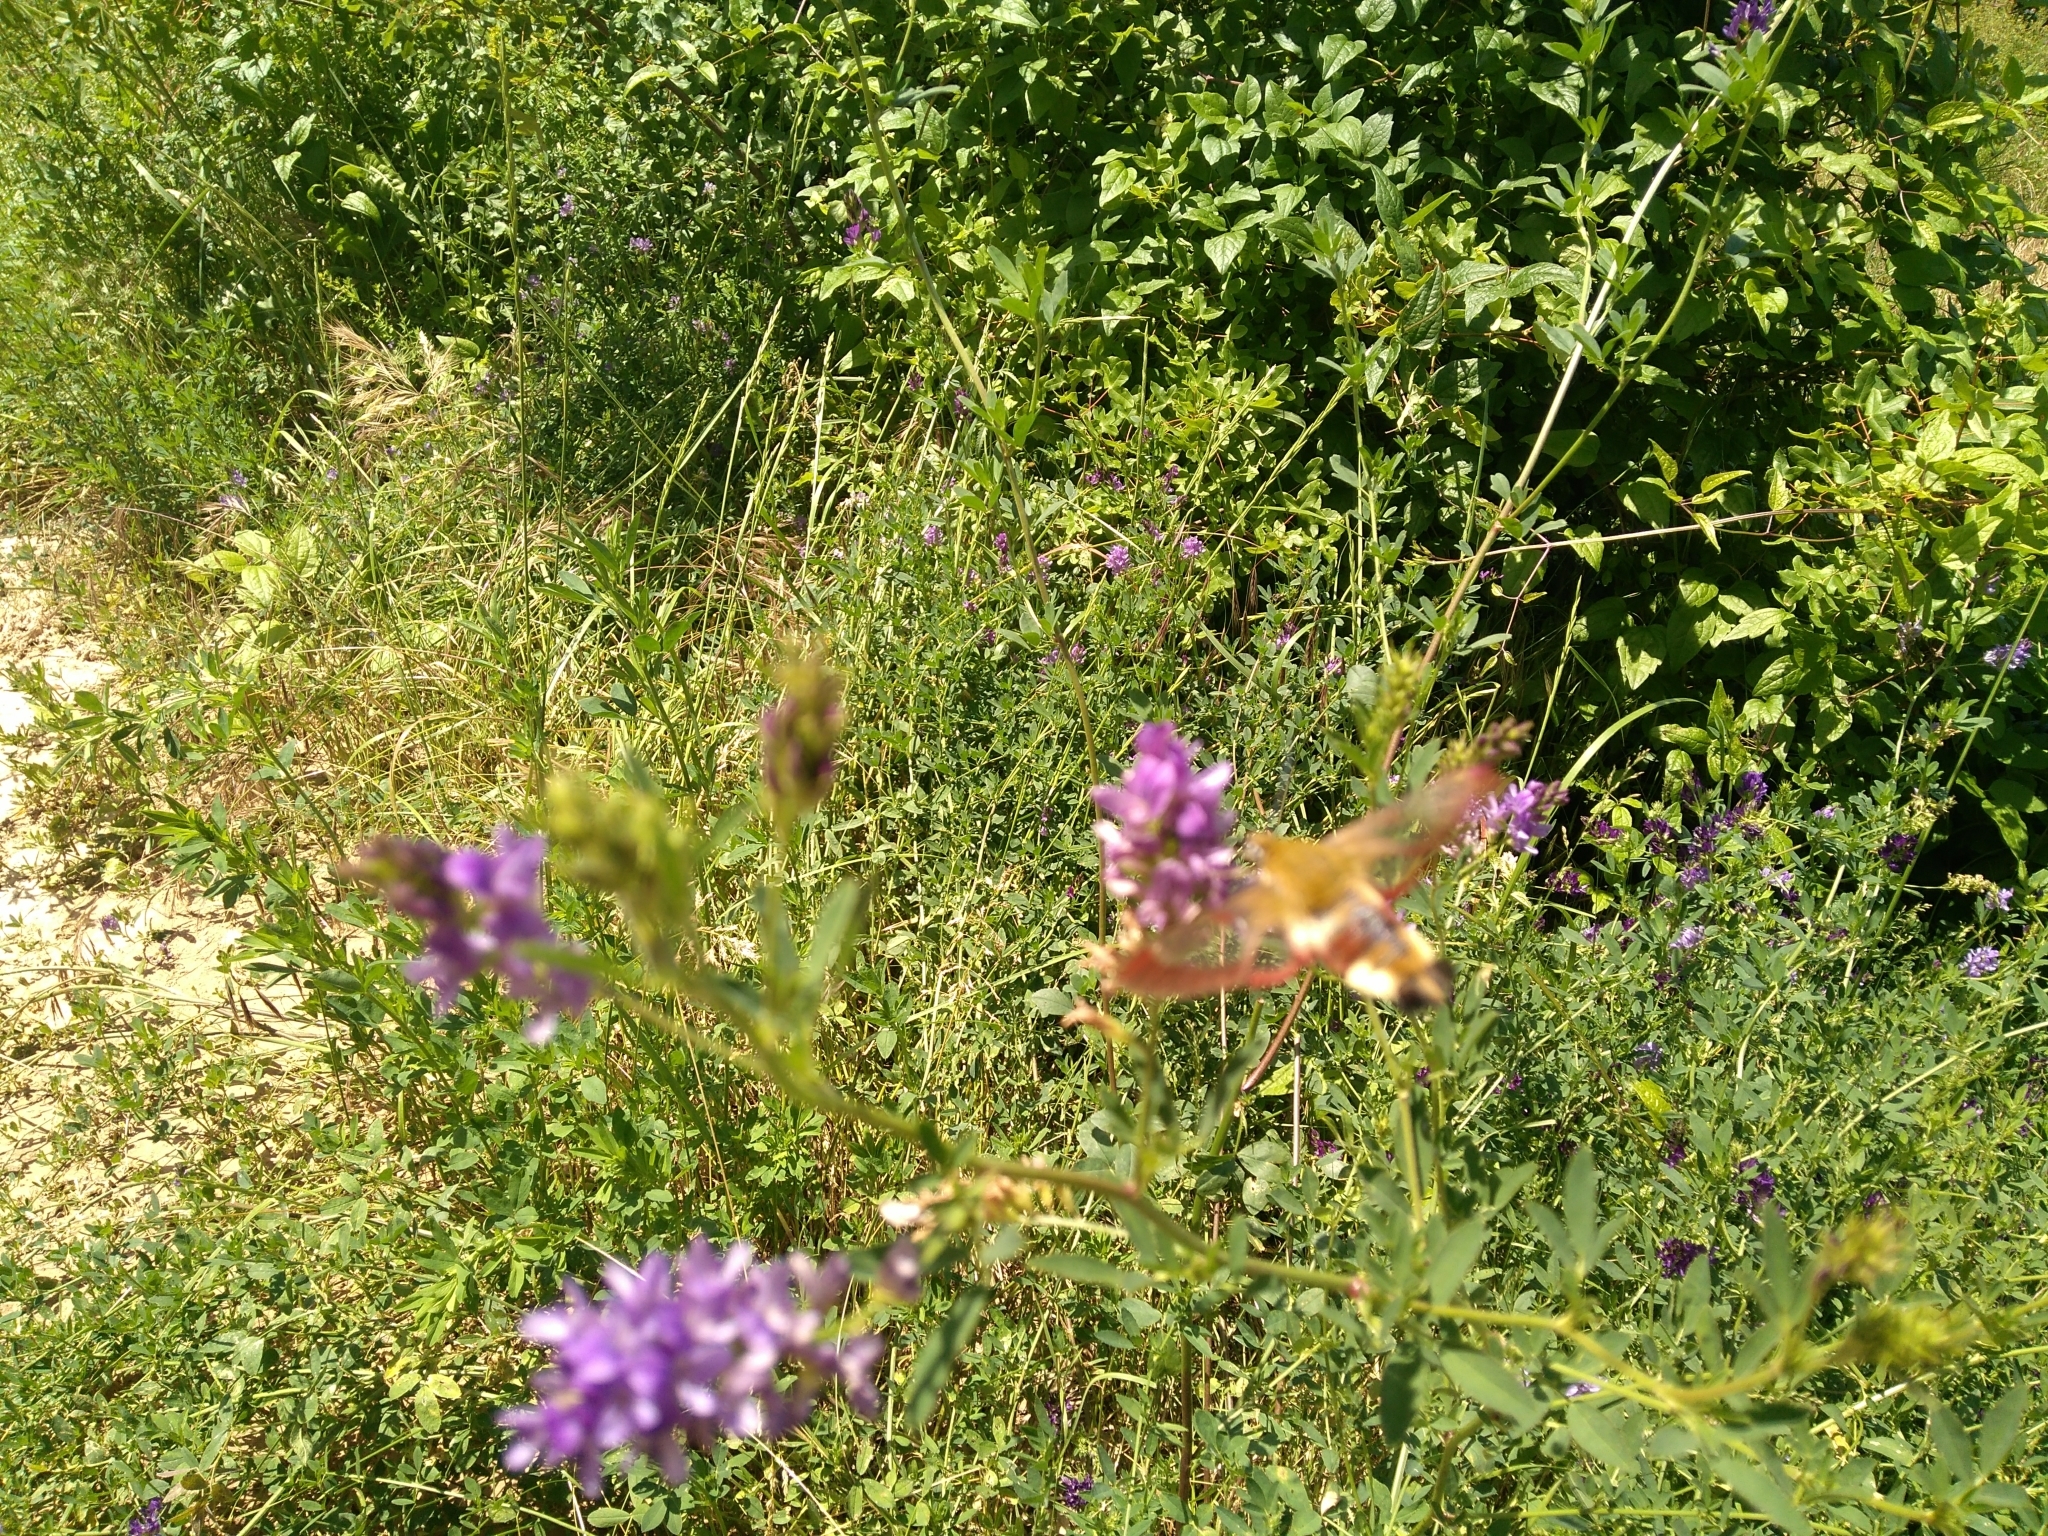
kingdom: Animalia
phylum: Arthropoda
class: Insecta
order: Lepidoptera
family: Sphingidae
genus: Hemaris
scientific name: Hemaris fuciformis
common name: Broad-bordered bee hawk-moth
